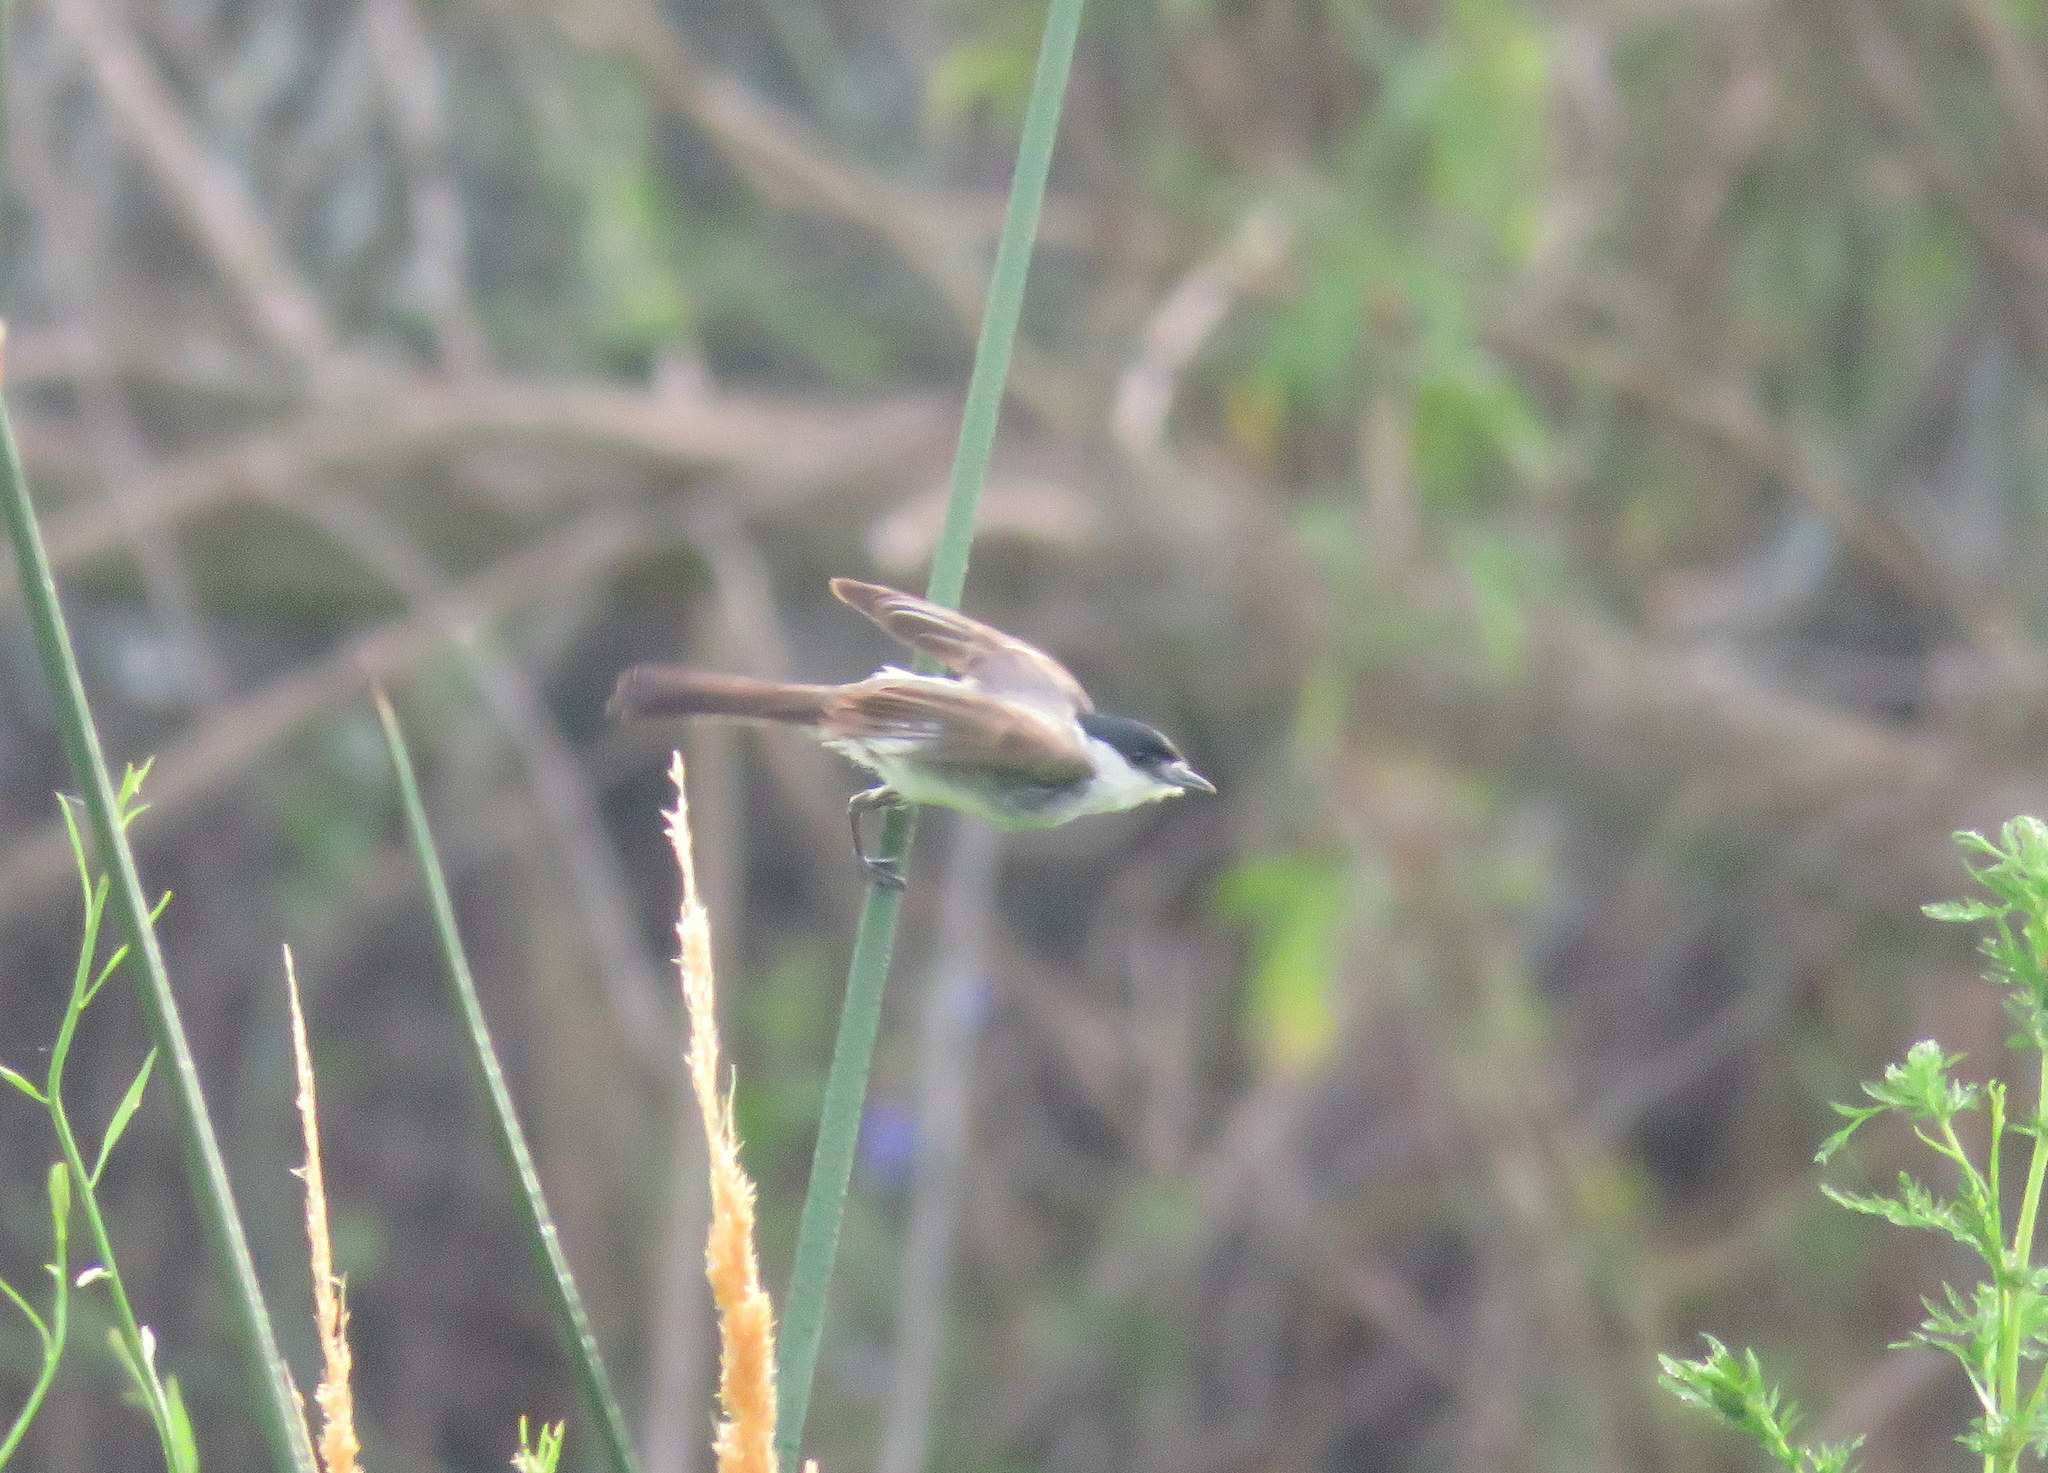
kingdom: Animalia
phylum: Chordata
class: Aves
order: Passeriformes
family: Cotingidae
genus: Xenopsaris
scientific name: Xenopsaris albinucha
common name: White-naped xenopsaris
